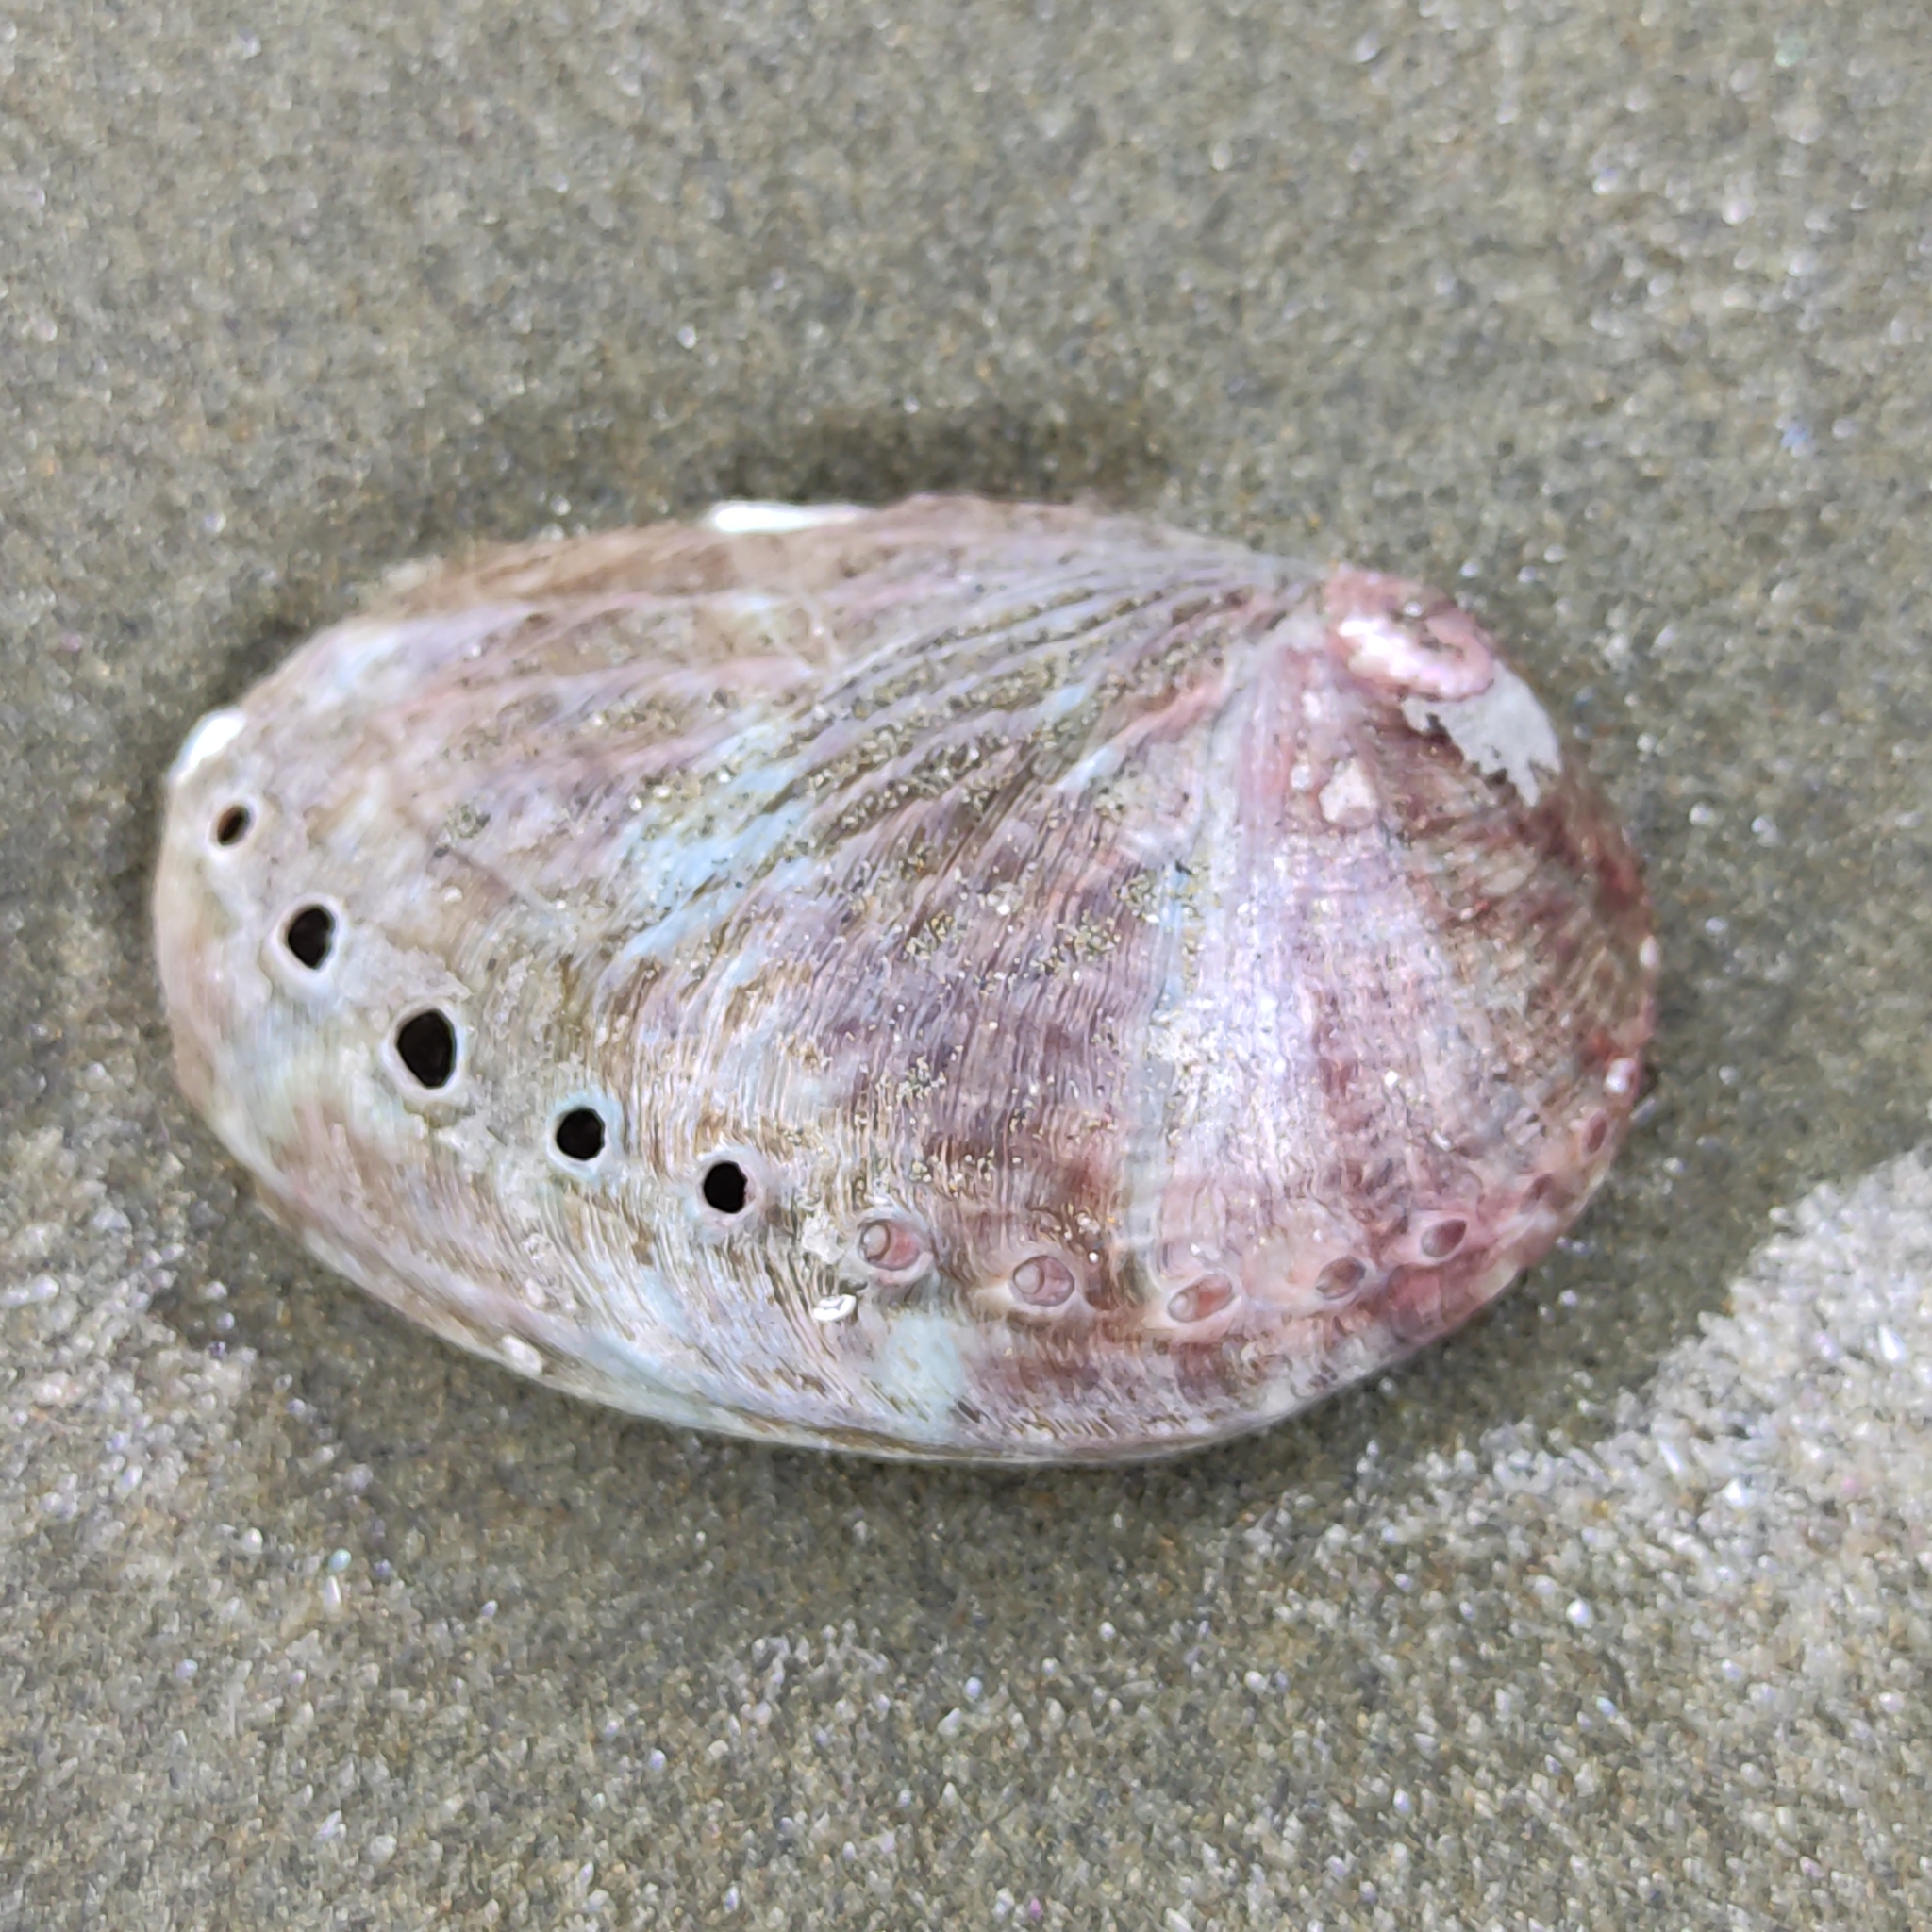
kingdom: Animalia
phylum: Mollusca
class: Gastropoda
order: Lepetellida
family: Haliotidae
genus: Haliotis
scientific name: Haliotis australis
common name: Silver abalone
